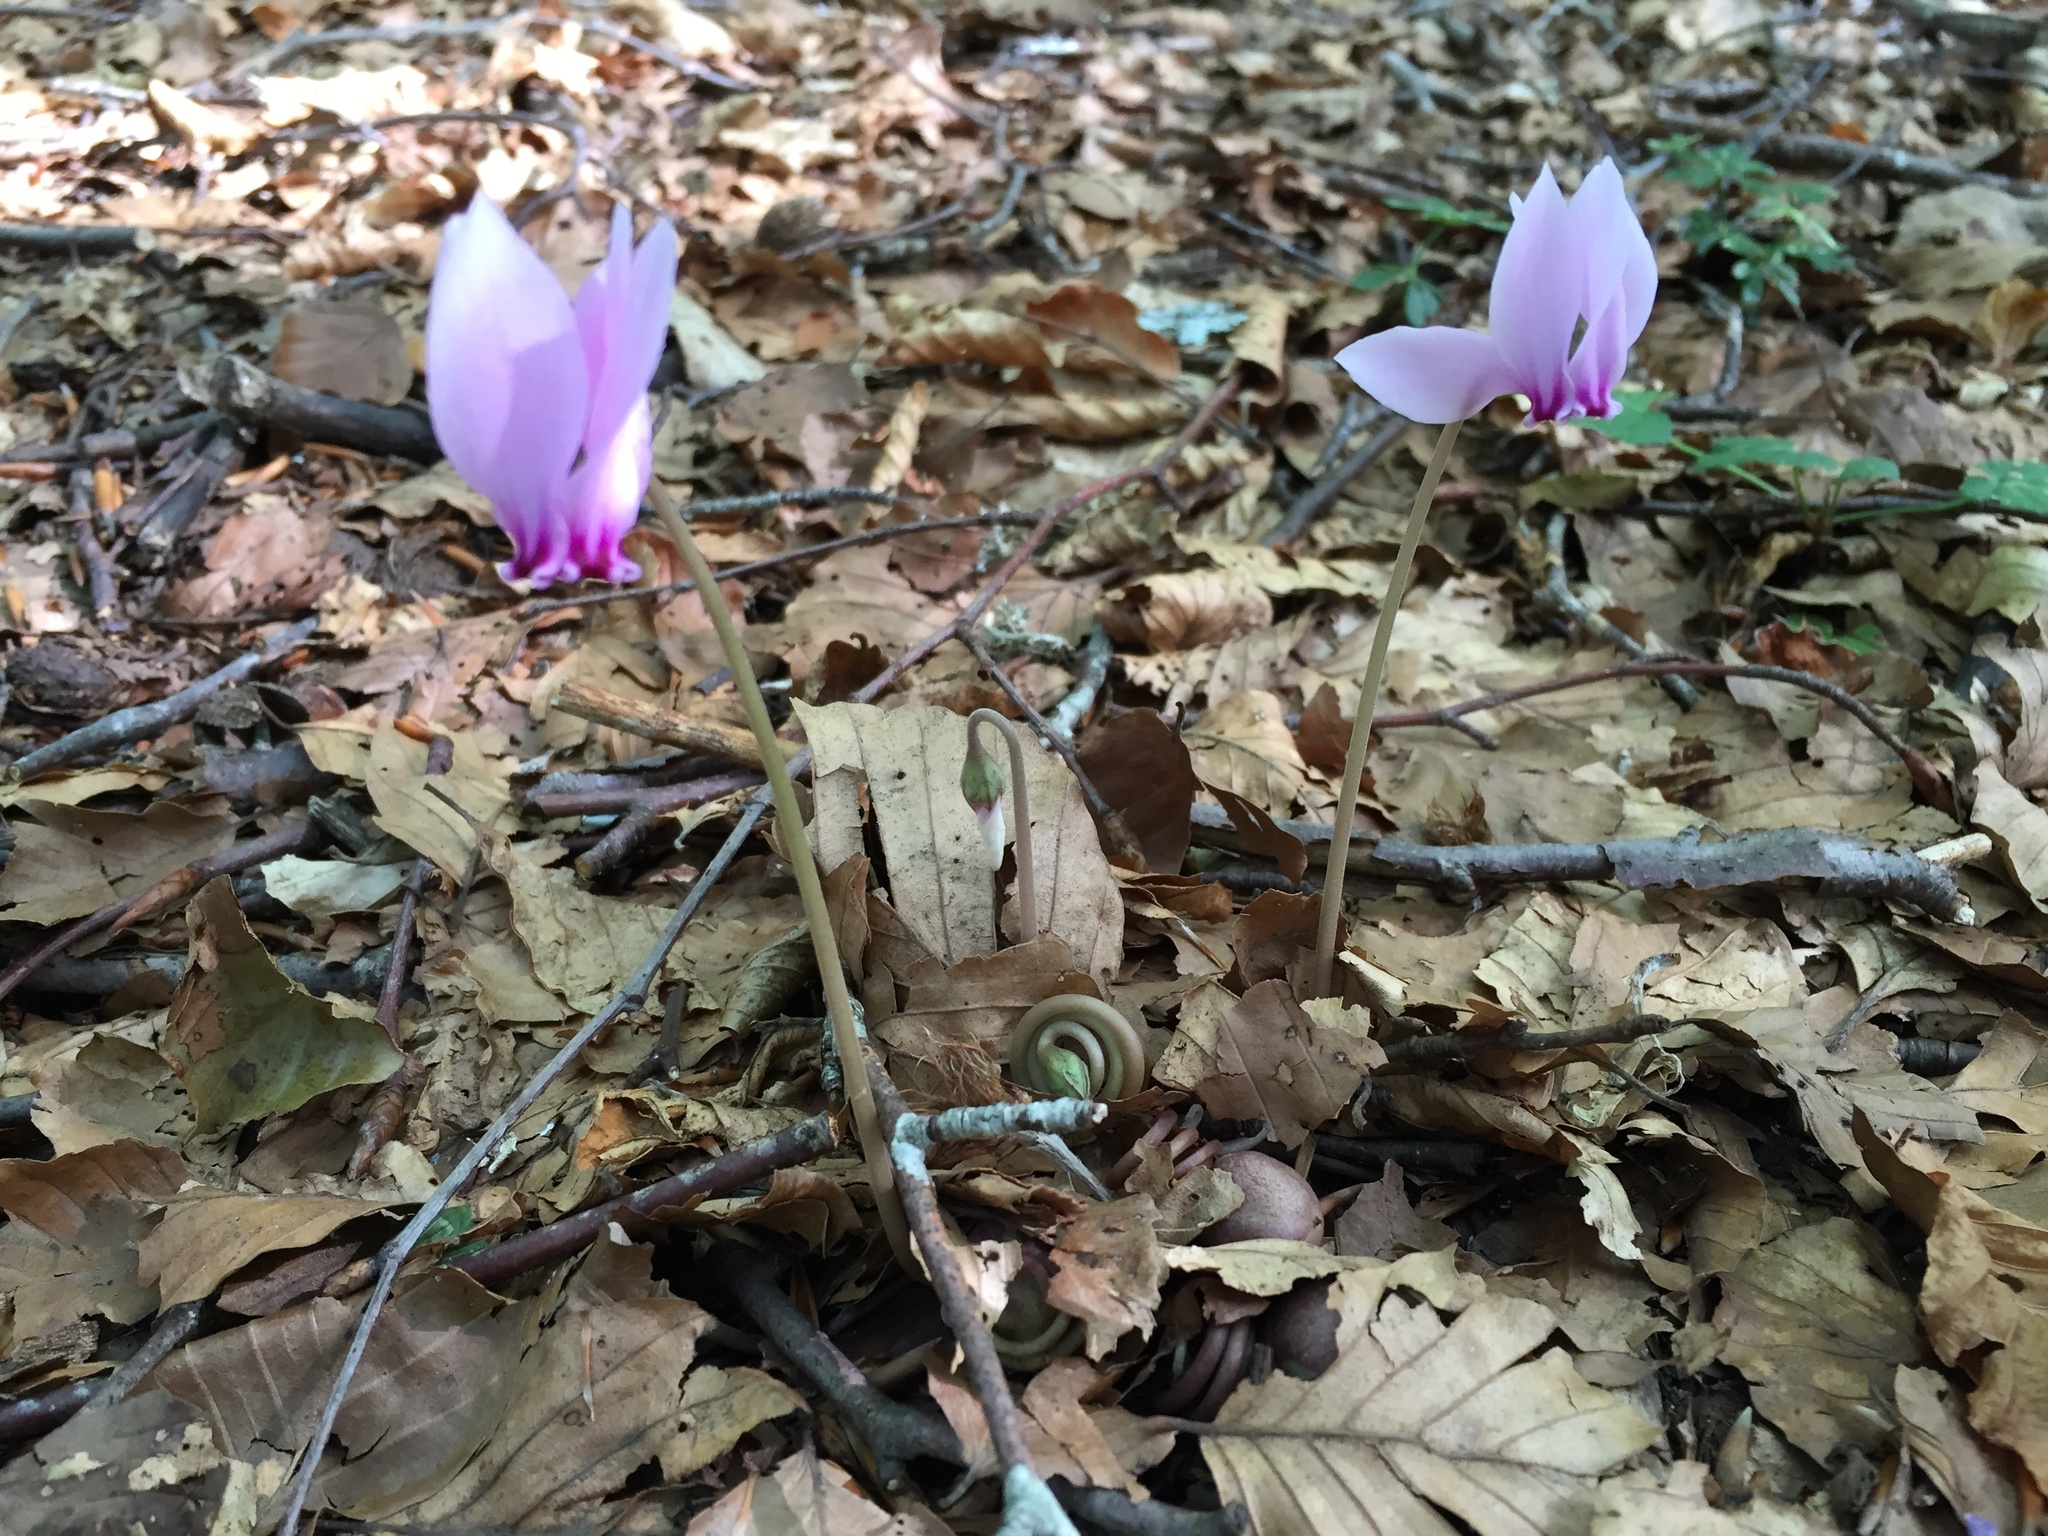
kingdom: Plantae
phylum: Tracheophyta
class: Magnoliopsida
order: Ericales
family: Primulaceae
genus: Cyclamen
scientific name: Cyclamen hederifolium
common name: Sowbread
